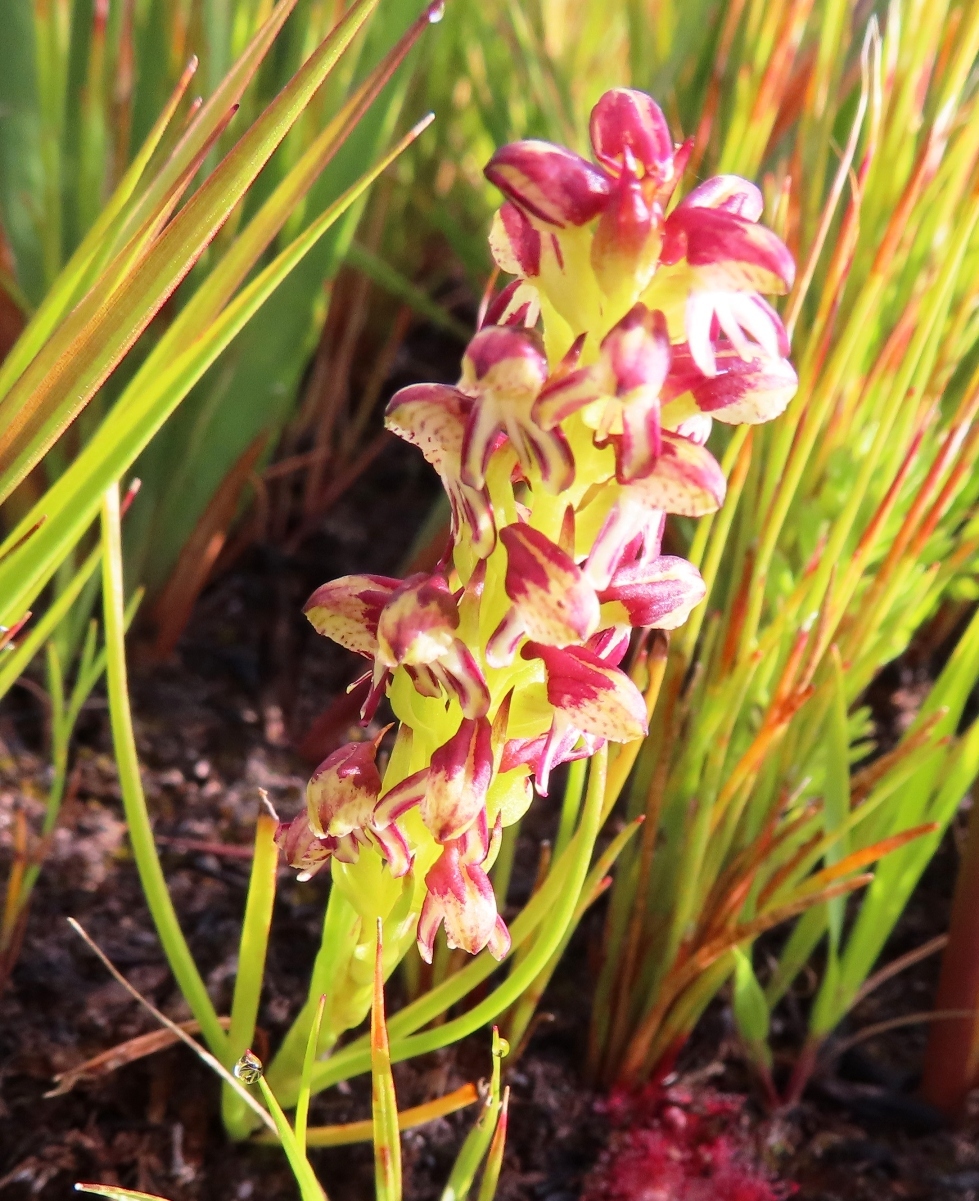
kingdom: Plantae
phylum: Tracheophyta
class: Liliopsida
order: Asparagales
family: Orchidaceae
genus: Disa
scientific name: Disa obtusa
